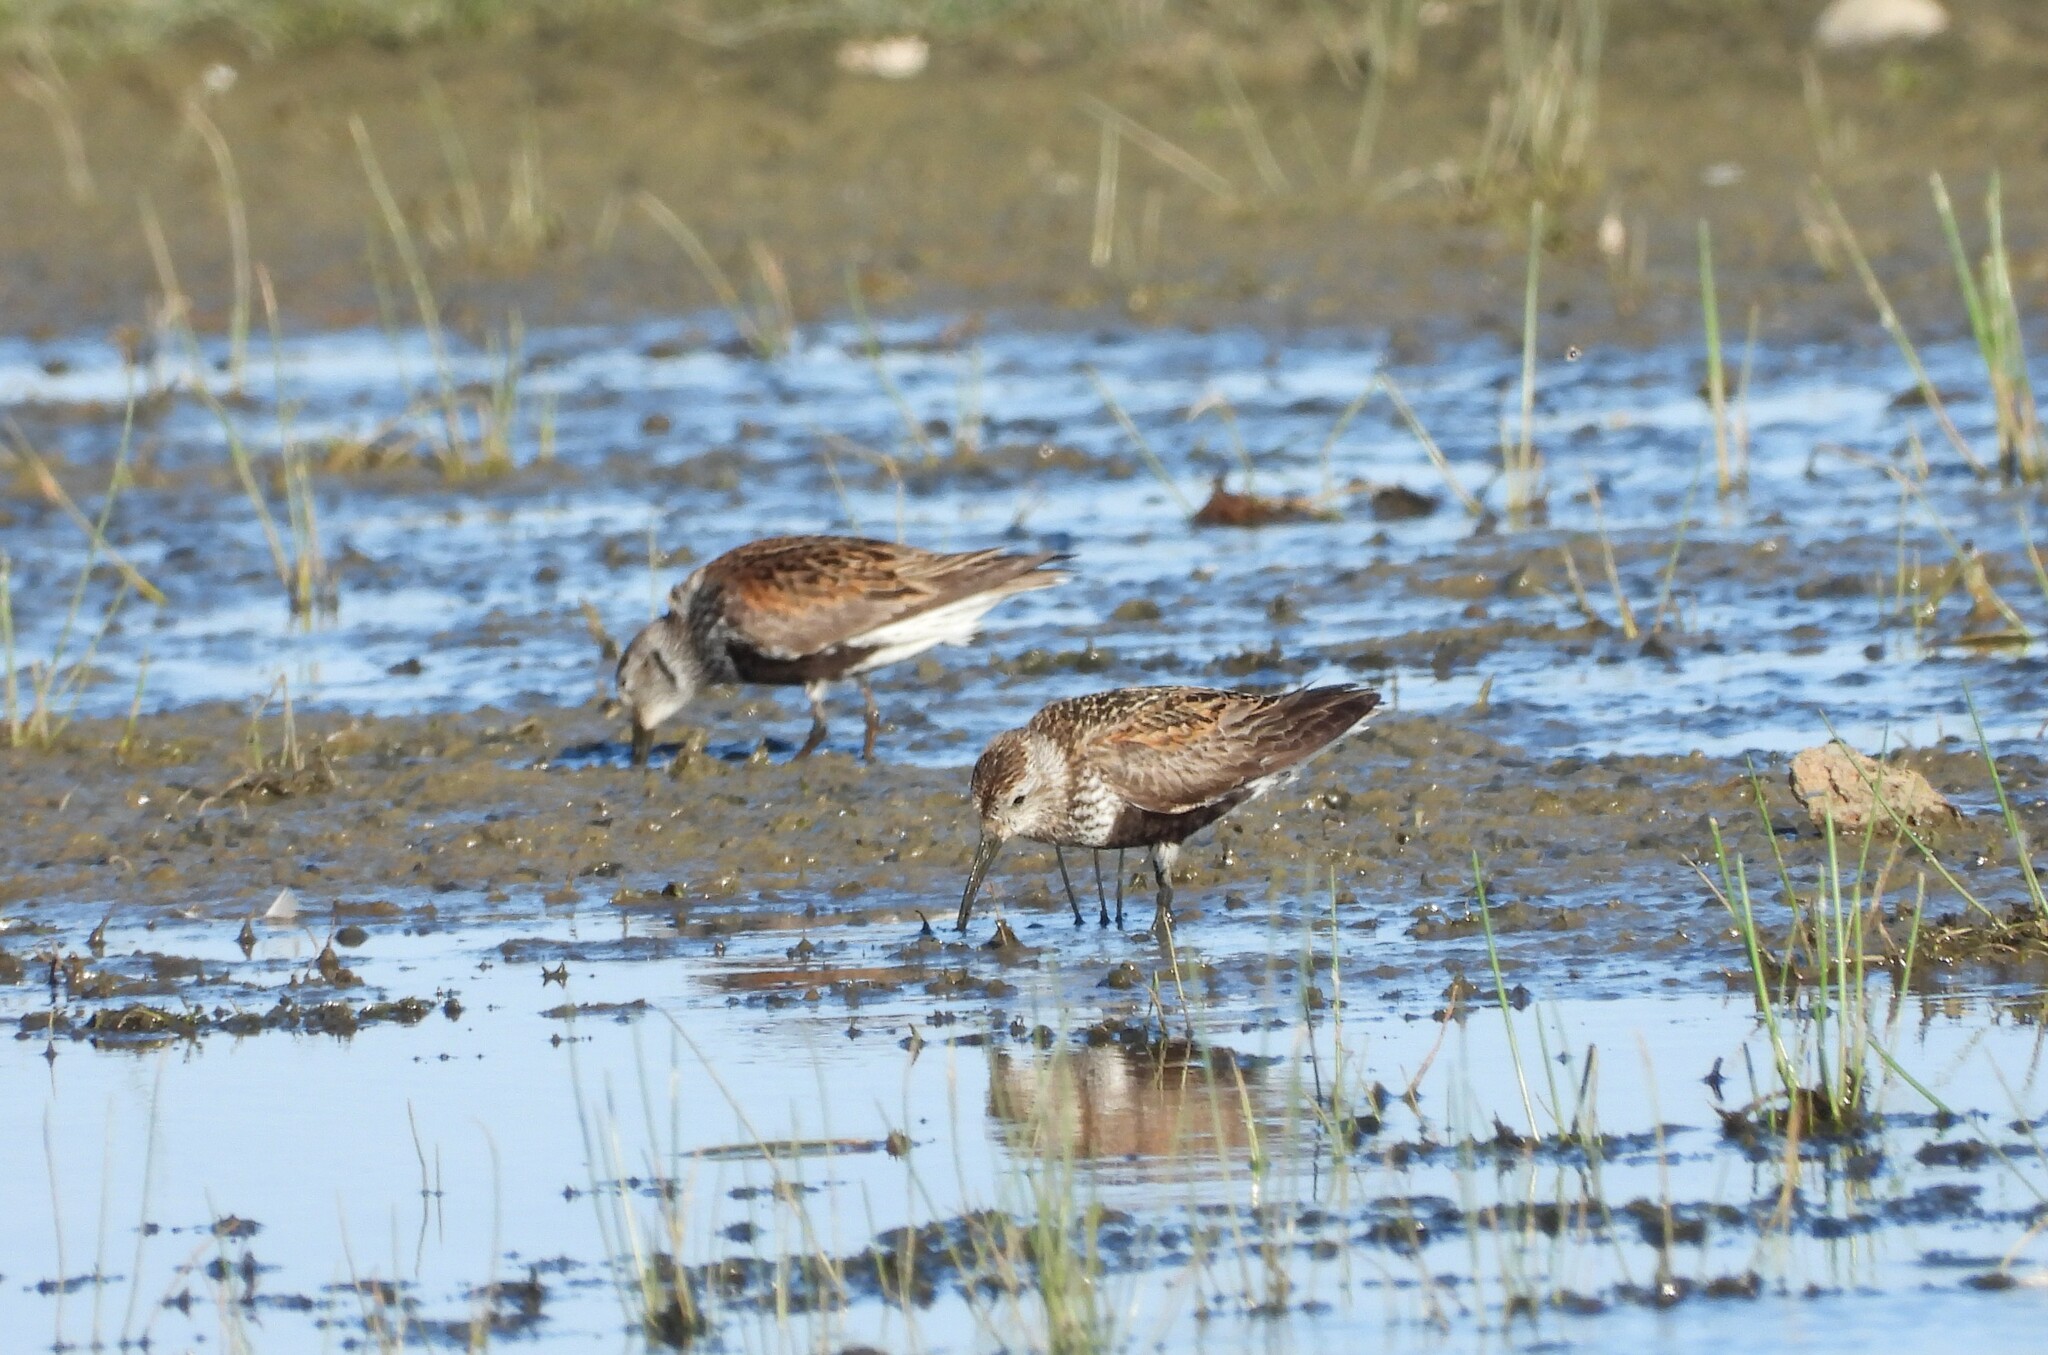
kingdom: Animalia
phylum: Chordata
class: Aves
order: Charadriiformes
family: Scolopacidae
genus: Calidris
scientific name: Calidris alpina
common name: Dunlin
